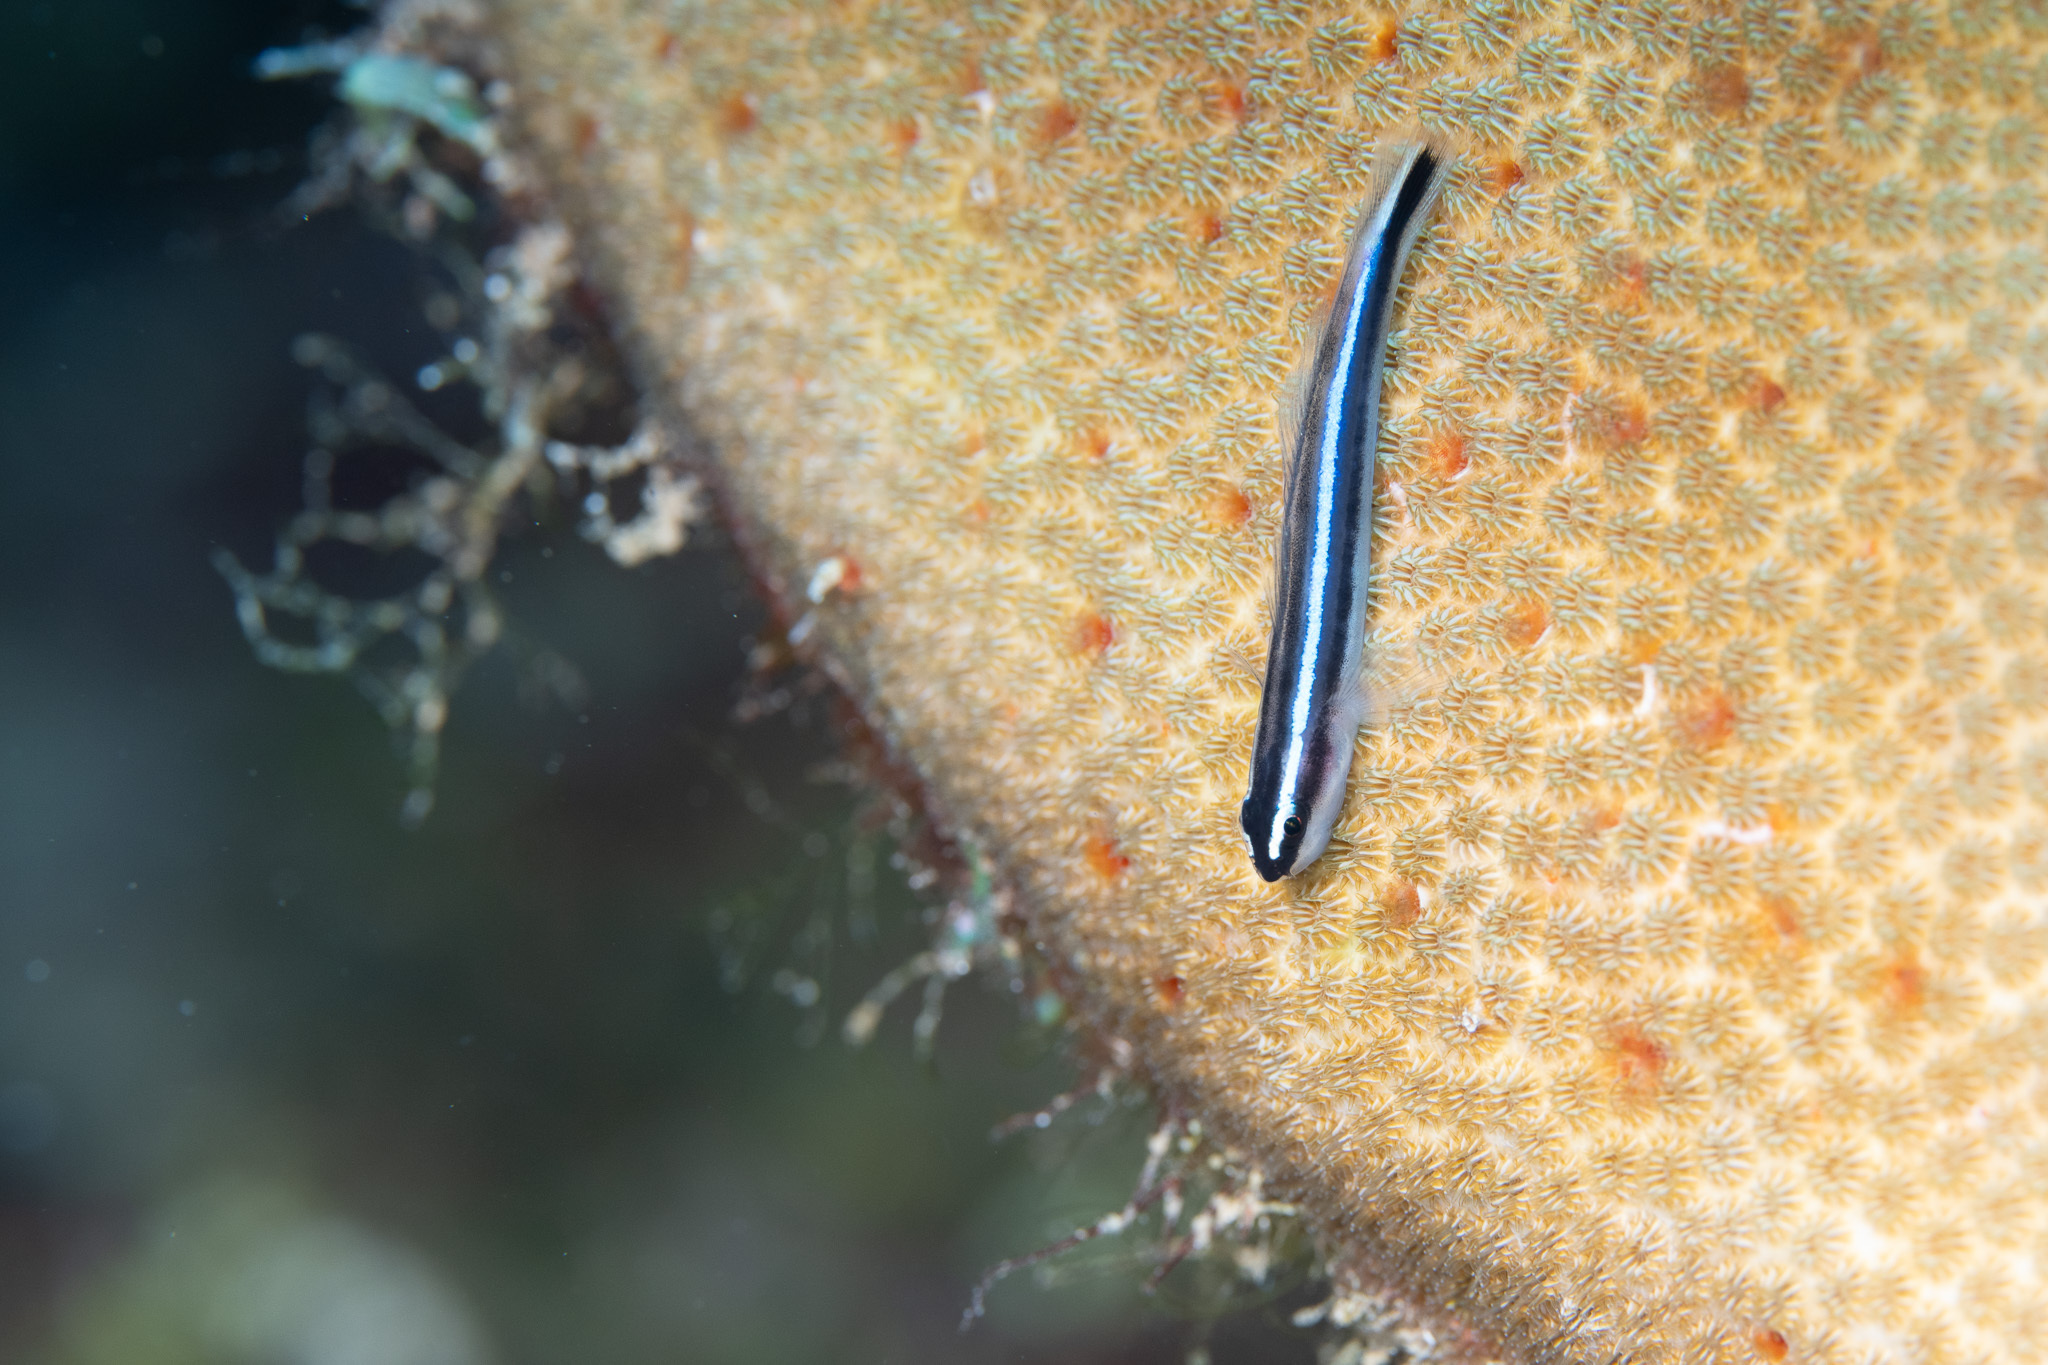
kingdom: Animalia
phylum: Chordata
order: Perciformes
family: Gobiidae
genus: Elacatinus
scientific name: Elacatinus lobeli
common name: Caribbean neon goby
